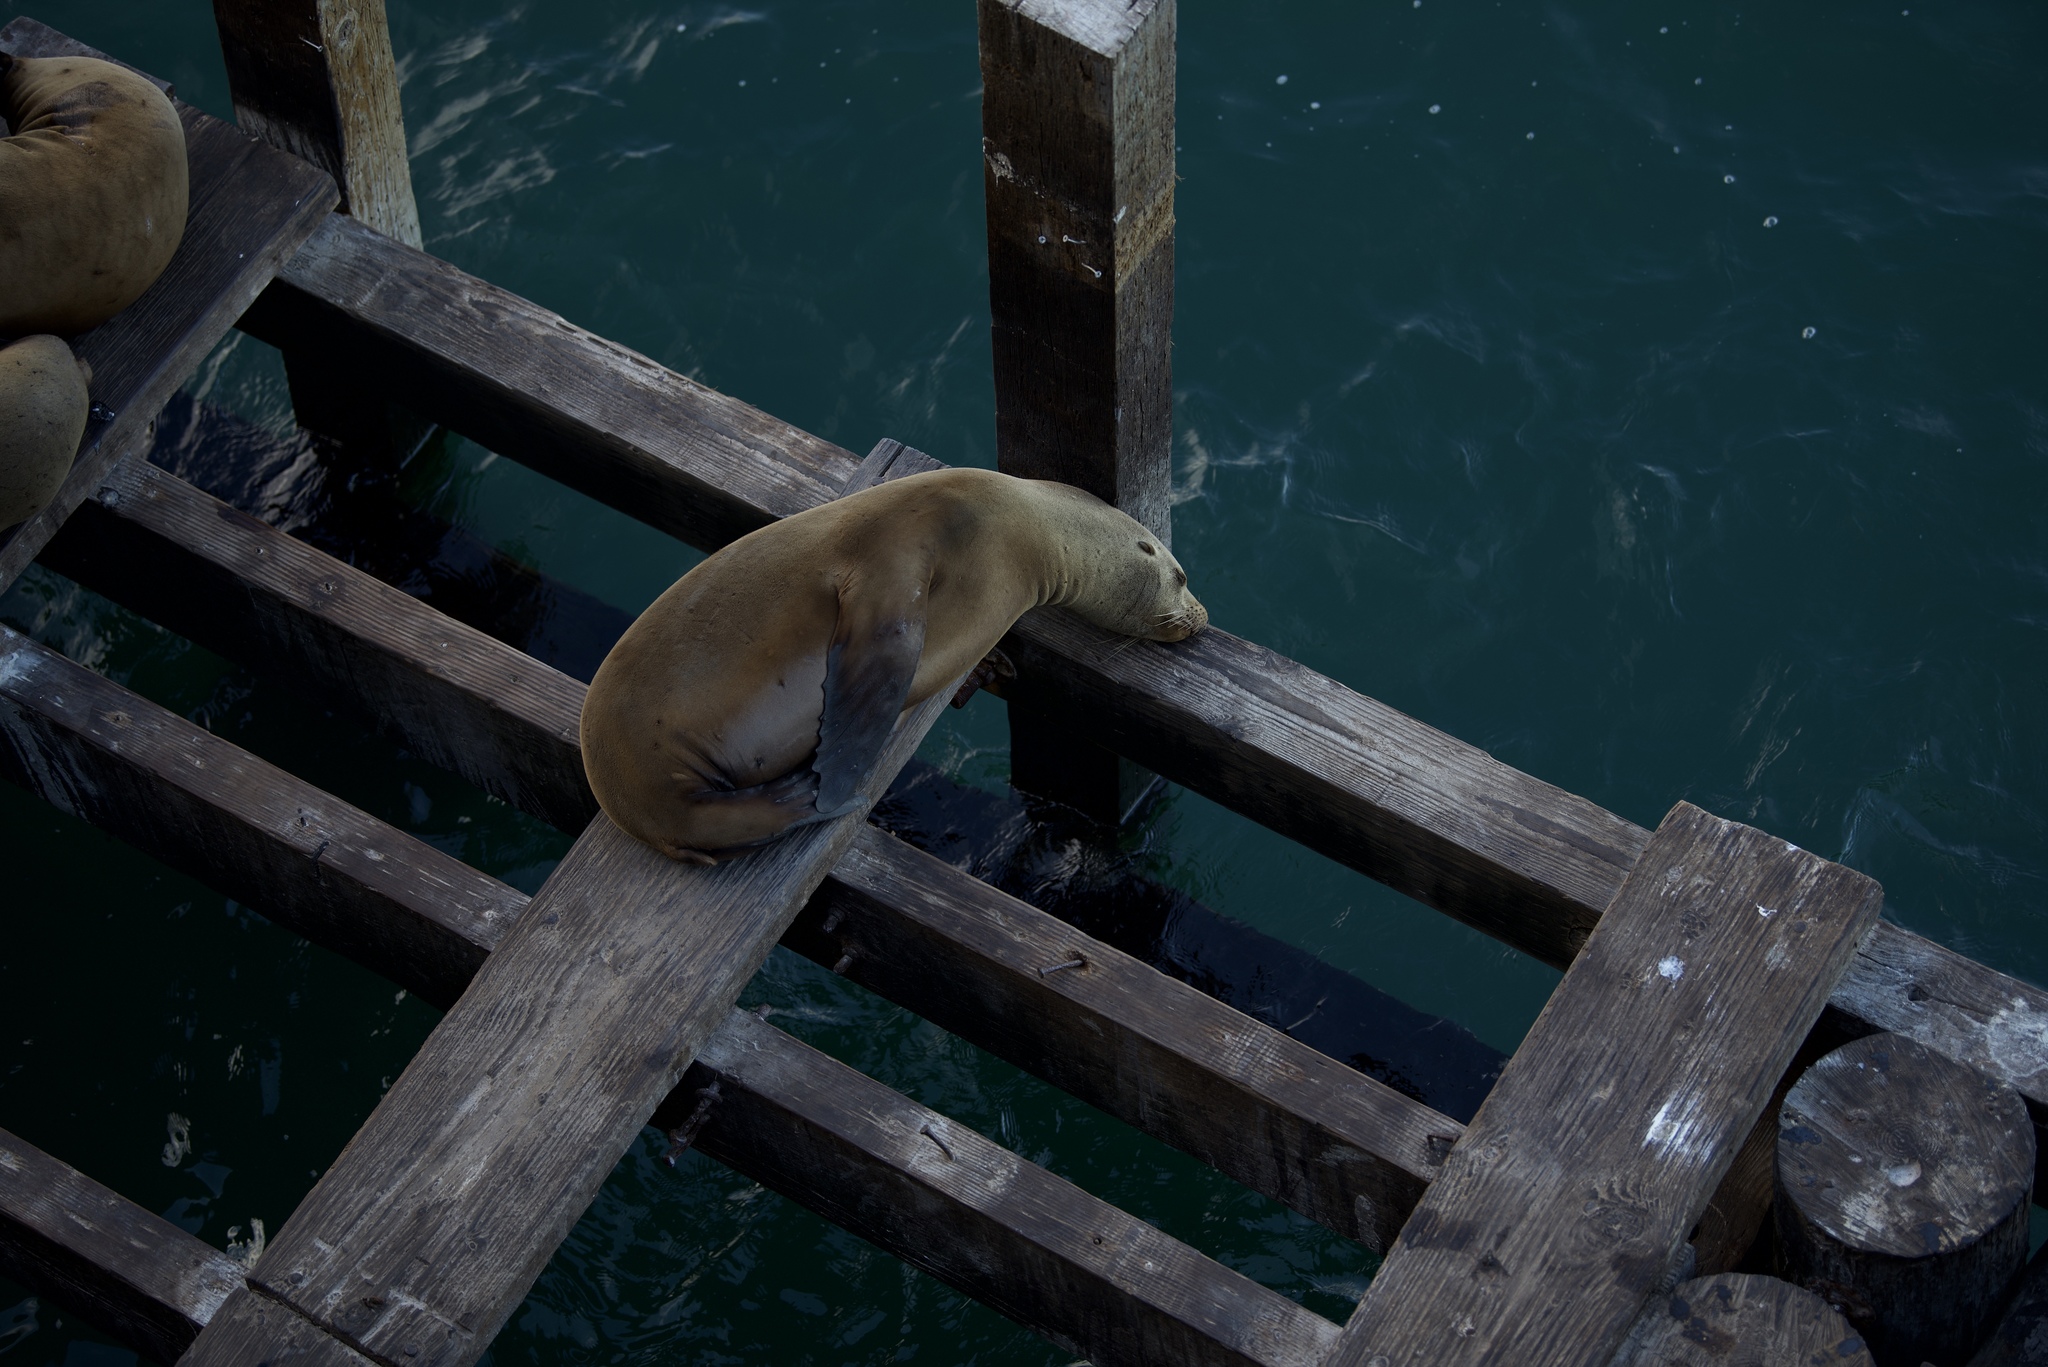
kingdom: Animalia
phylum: Chordata
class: Mammalia
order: Carnivora
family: Otariidae
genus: Zalophus
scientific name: Zalophus californianus
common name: California sea lion
